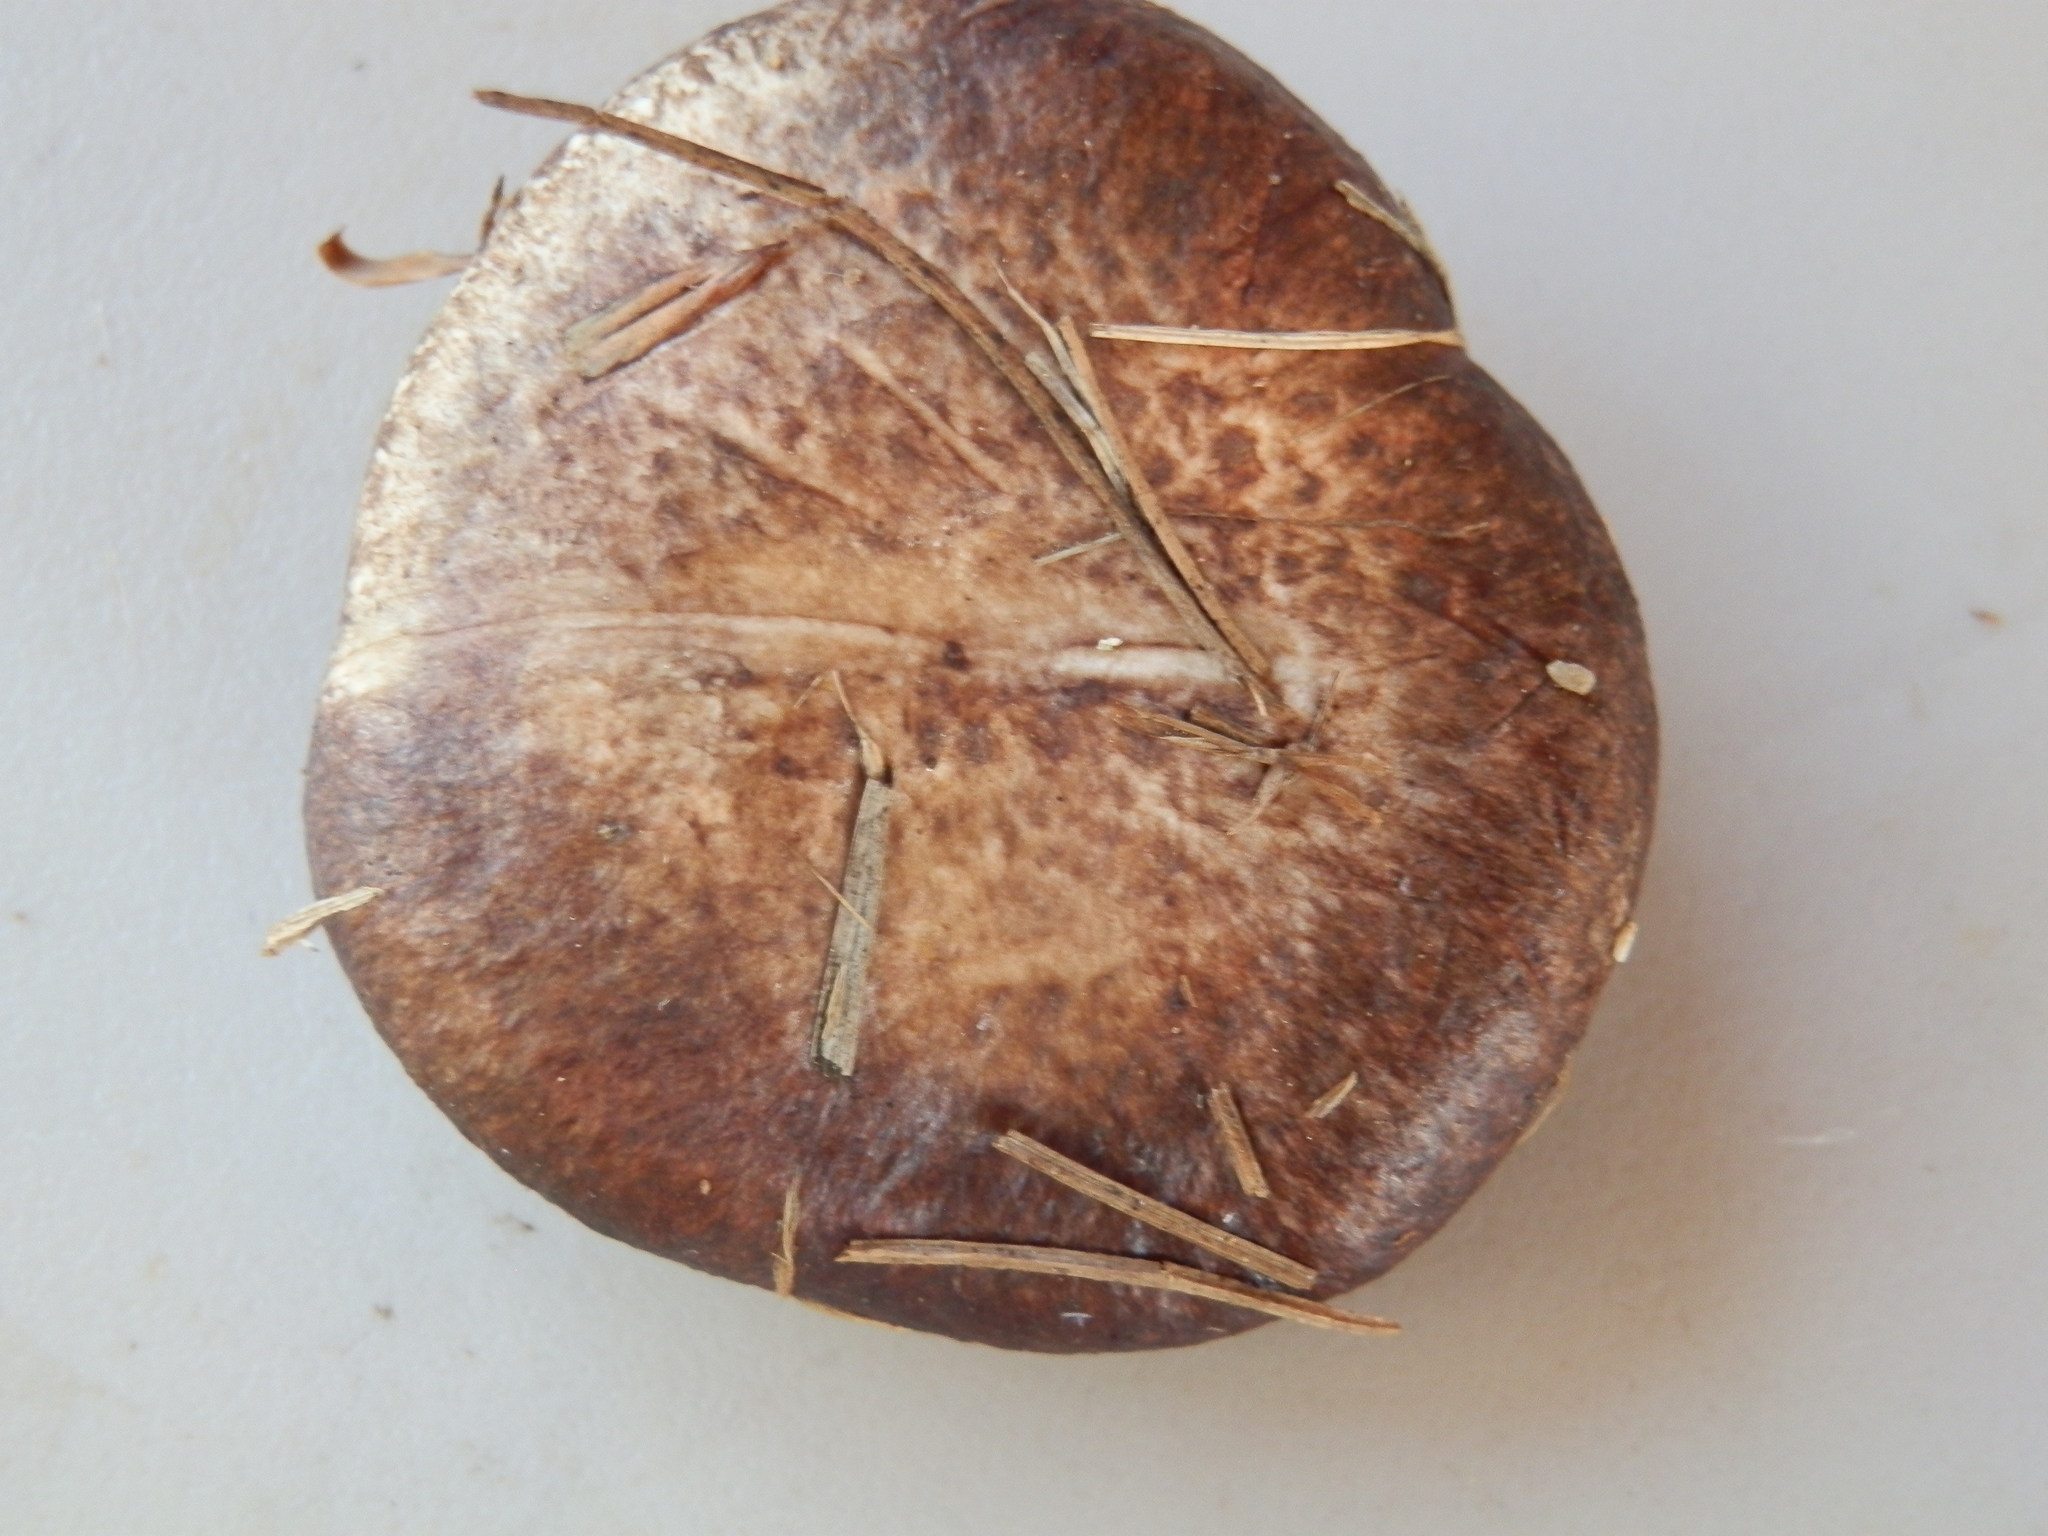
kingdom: Fungi
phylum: Basidiomycota
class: Agaricomycetes
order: Boletales
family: Suillaceae
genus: Suillus
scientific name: Suillus
